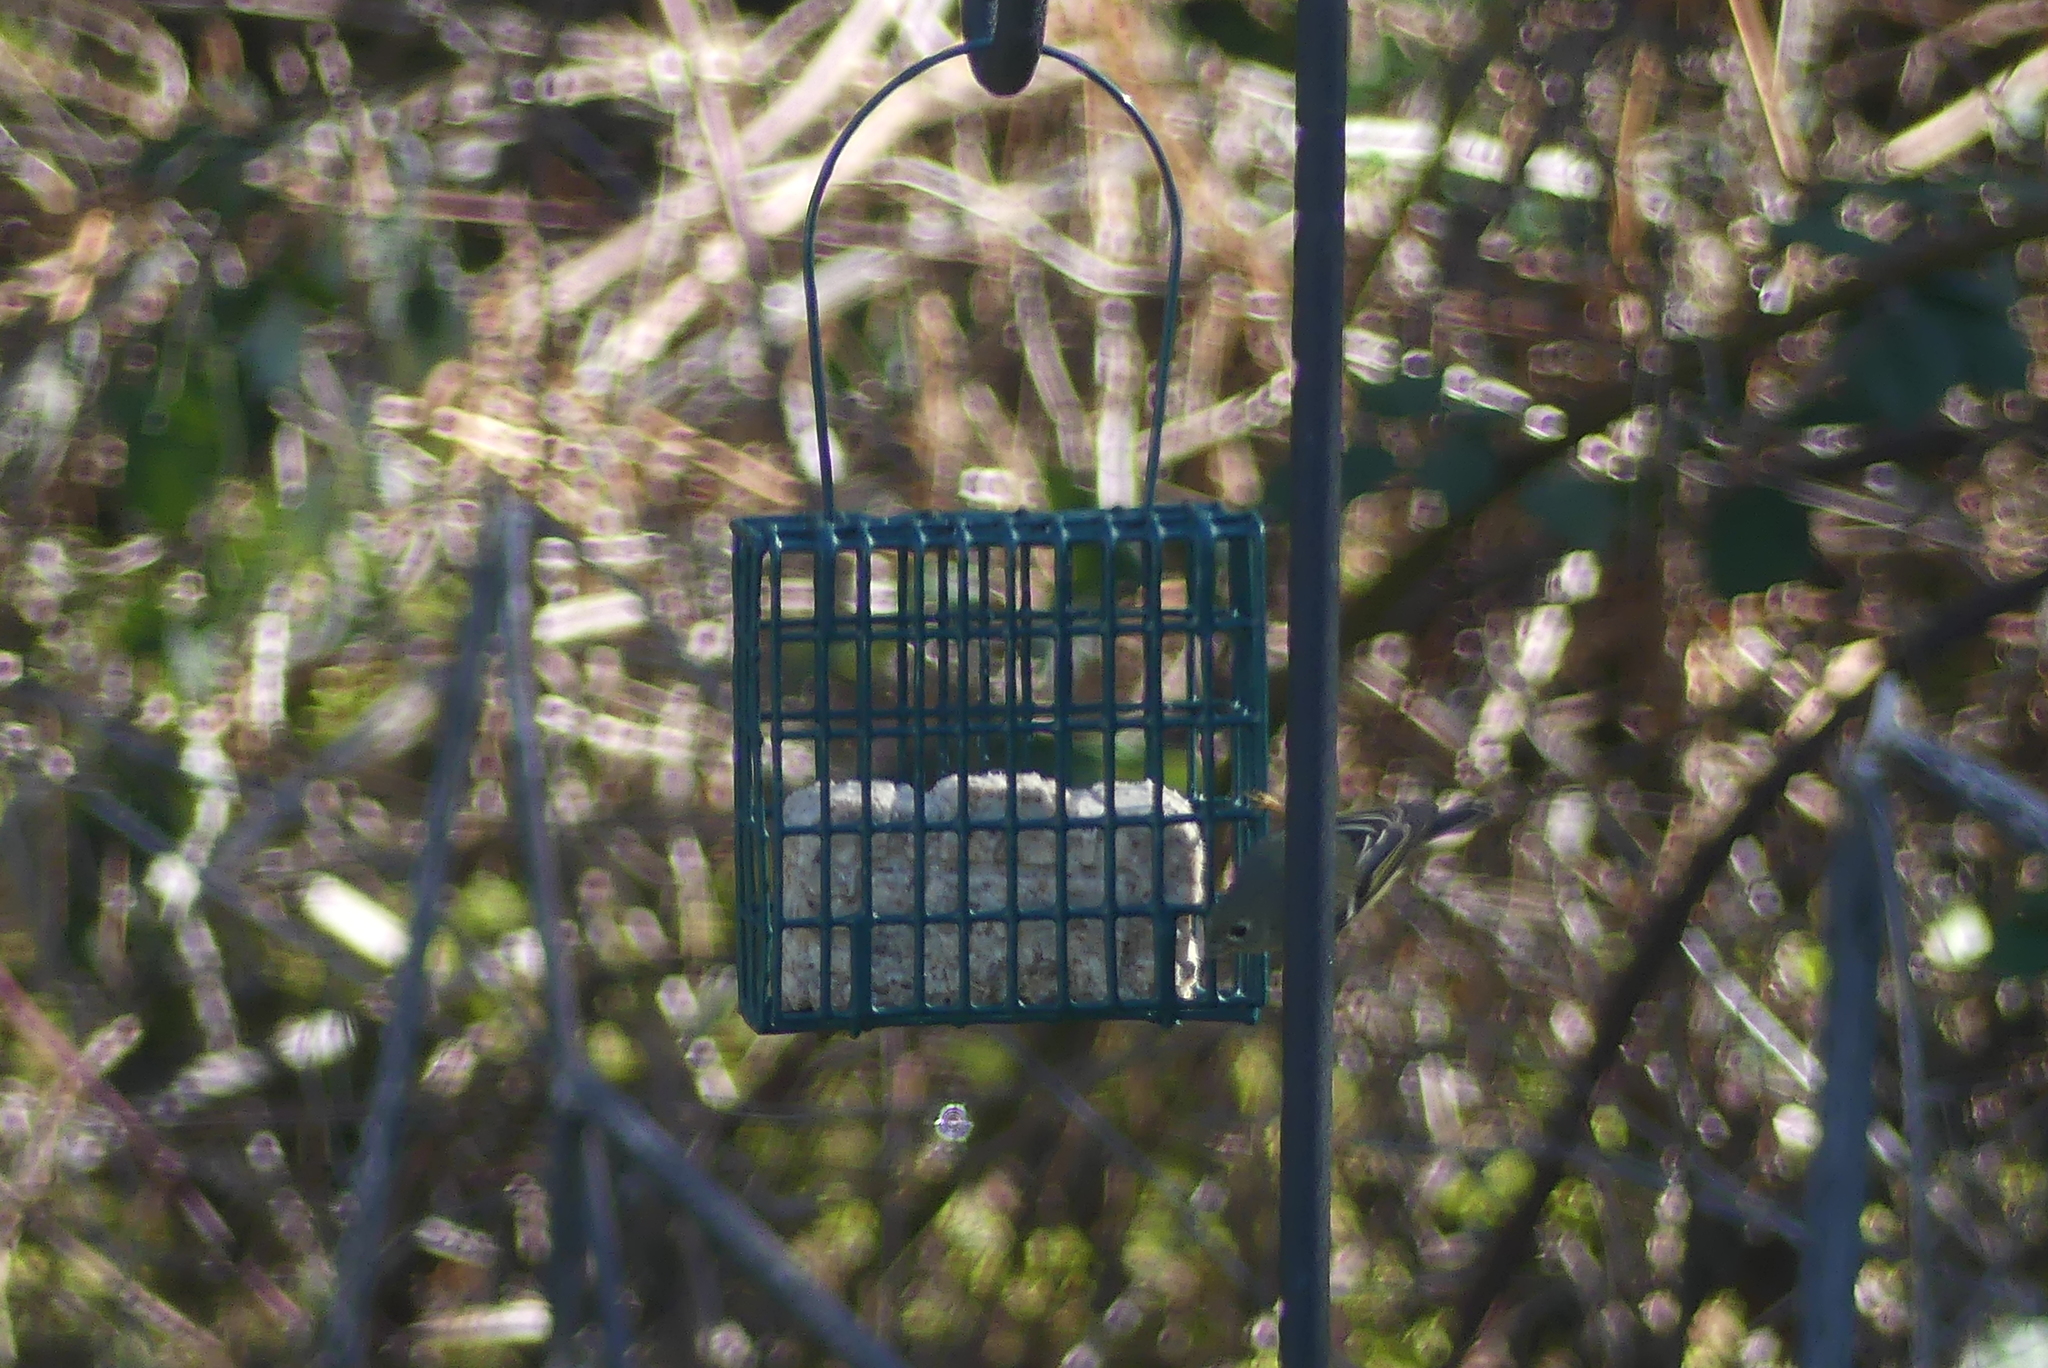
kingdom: Animalia
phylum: Chordata
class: Aves
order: Passeriformes
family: Regulidae
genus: Regulus
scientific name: Regulus calendula
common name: Ruby-crowned kinglet
